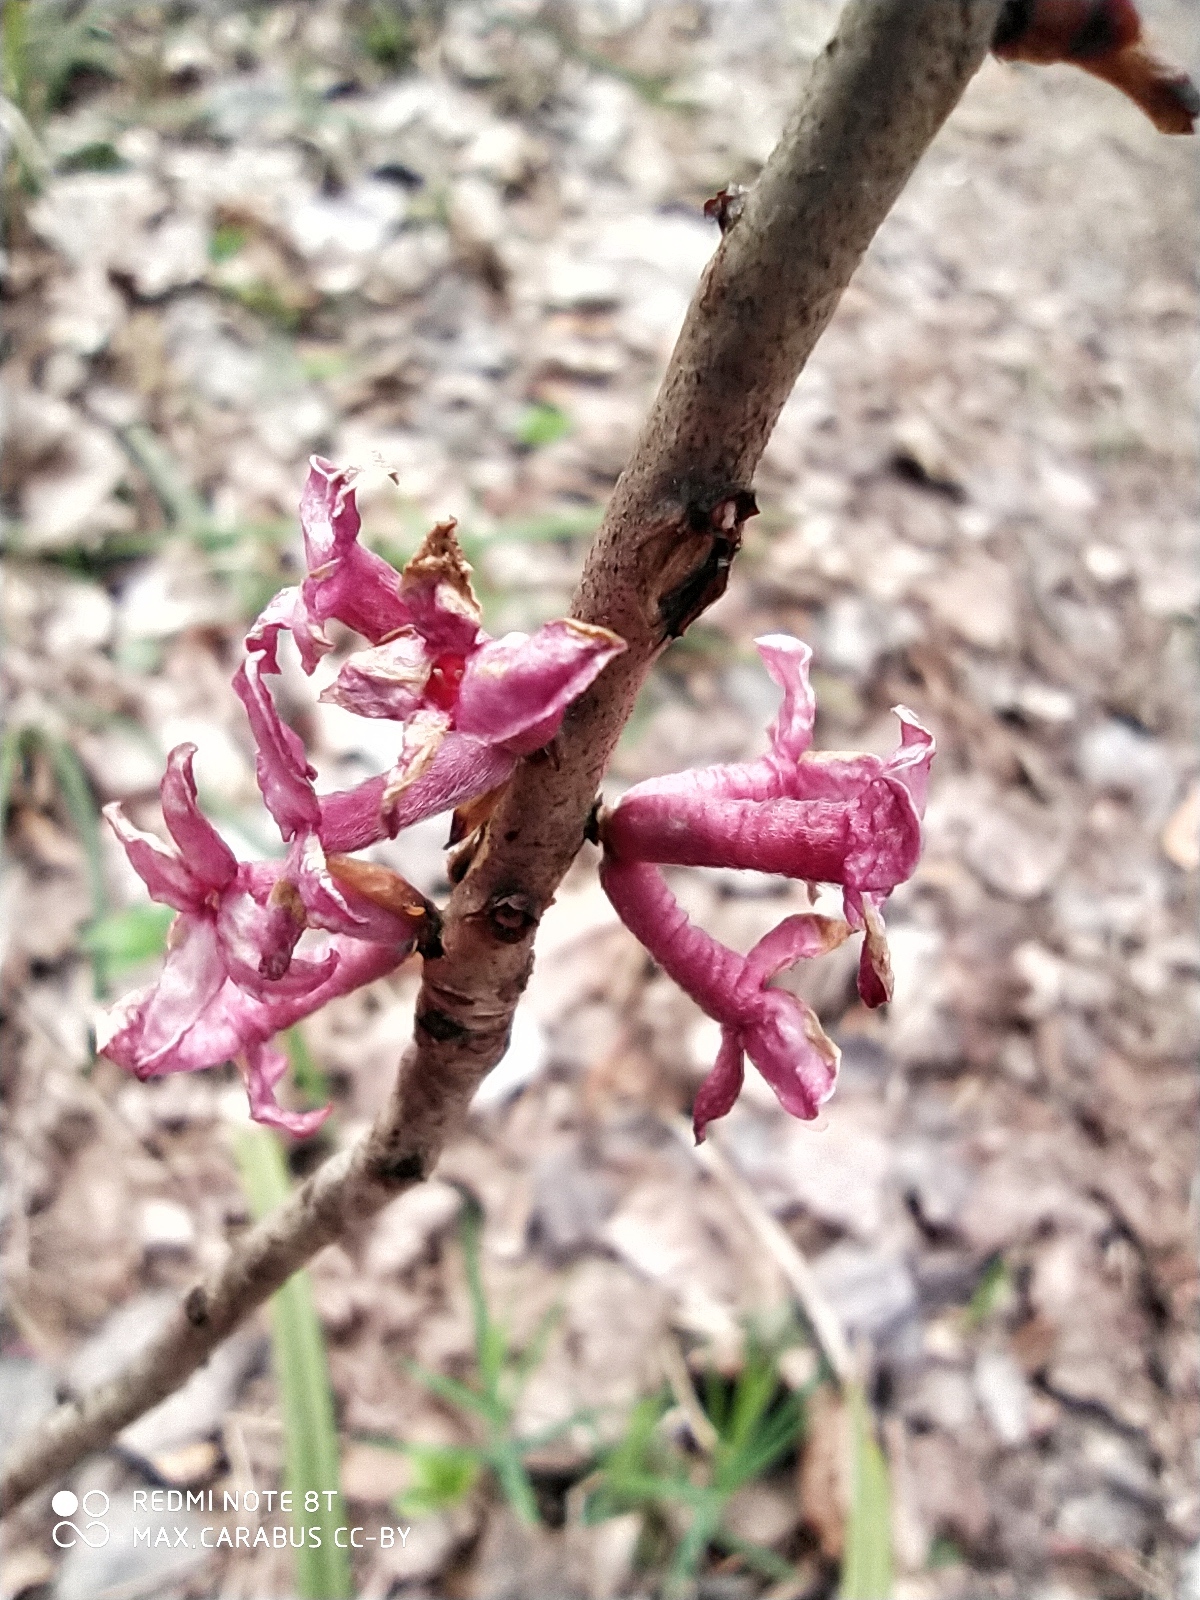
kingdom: Plantae
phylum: Tracheophyta
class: Magnoliopsida
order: Malvales
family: Thymelaeaceae
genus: Daphne
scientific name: Daphne mezereum
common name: Mezereon
